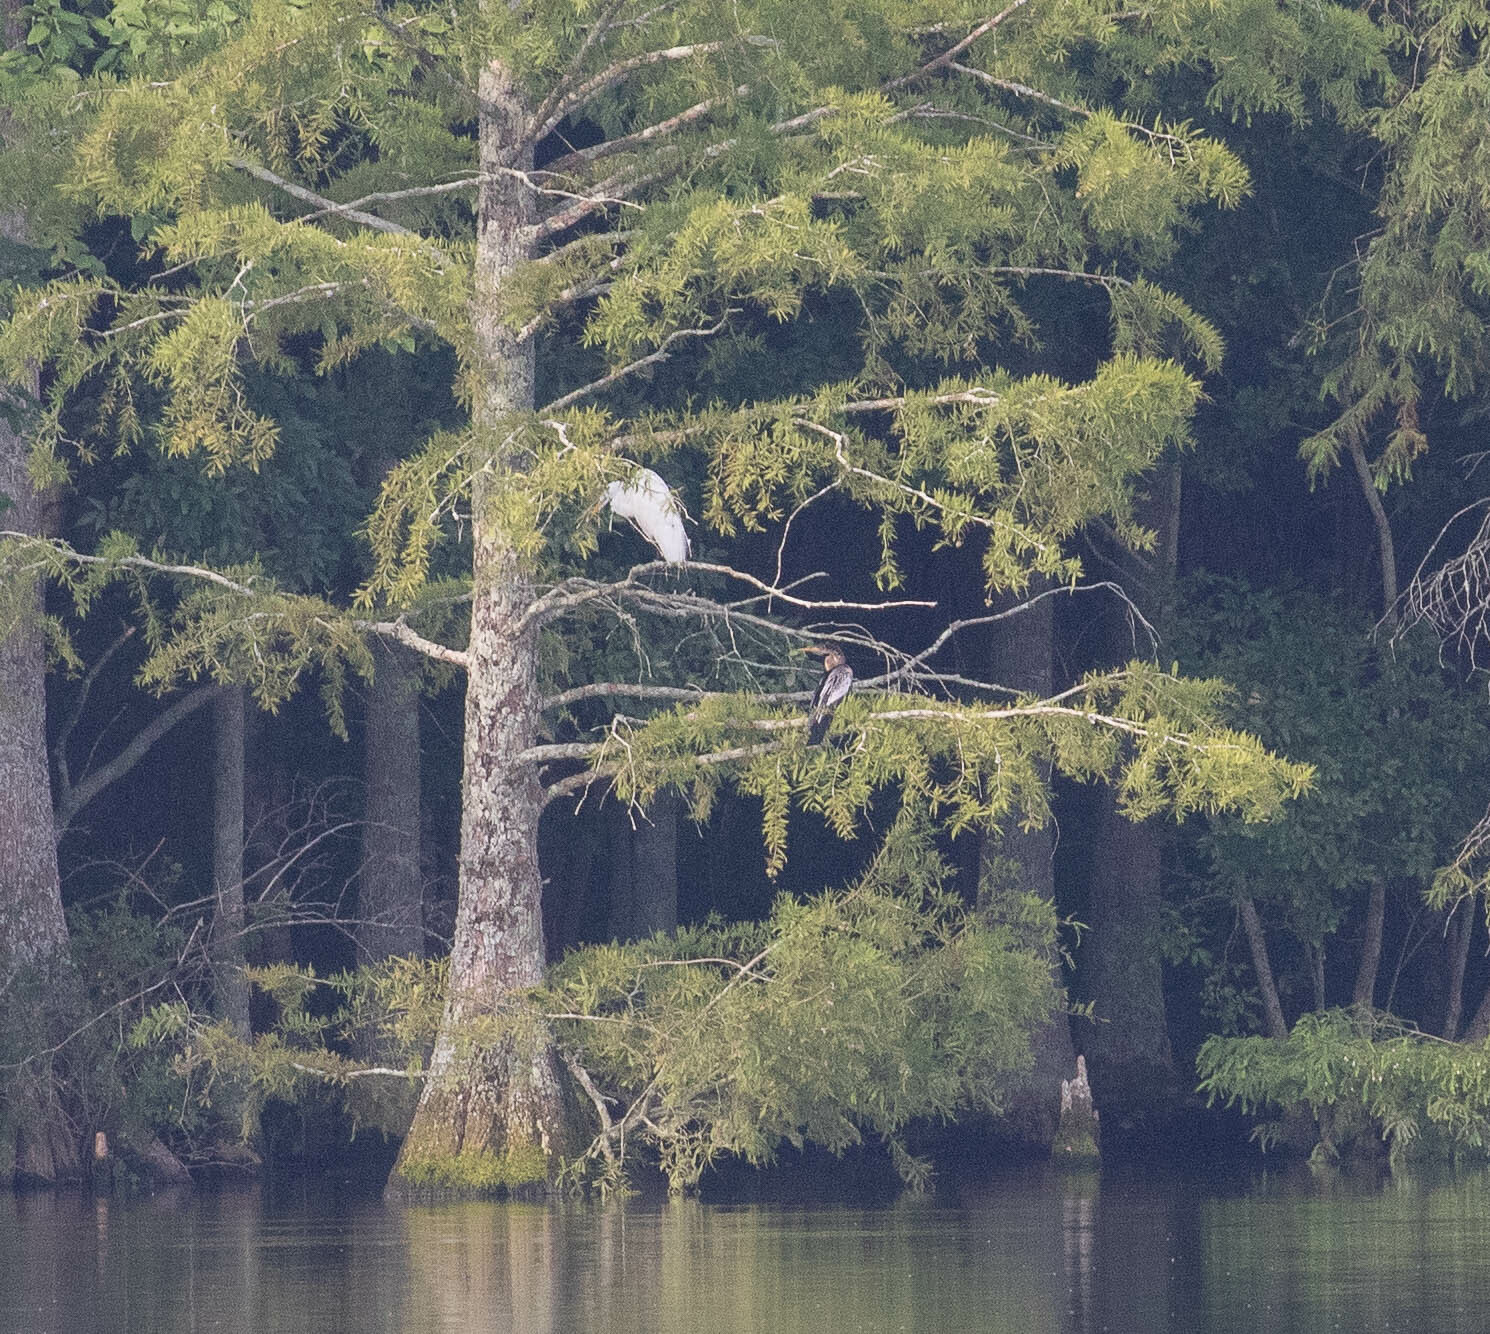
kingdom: Animalia
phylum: Chordata
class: Aves
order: Suliformes
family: Anhingidae
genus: Anhinga
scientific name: Anhinga anhinga
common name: Anhinga
